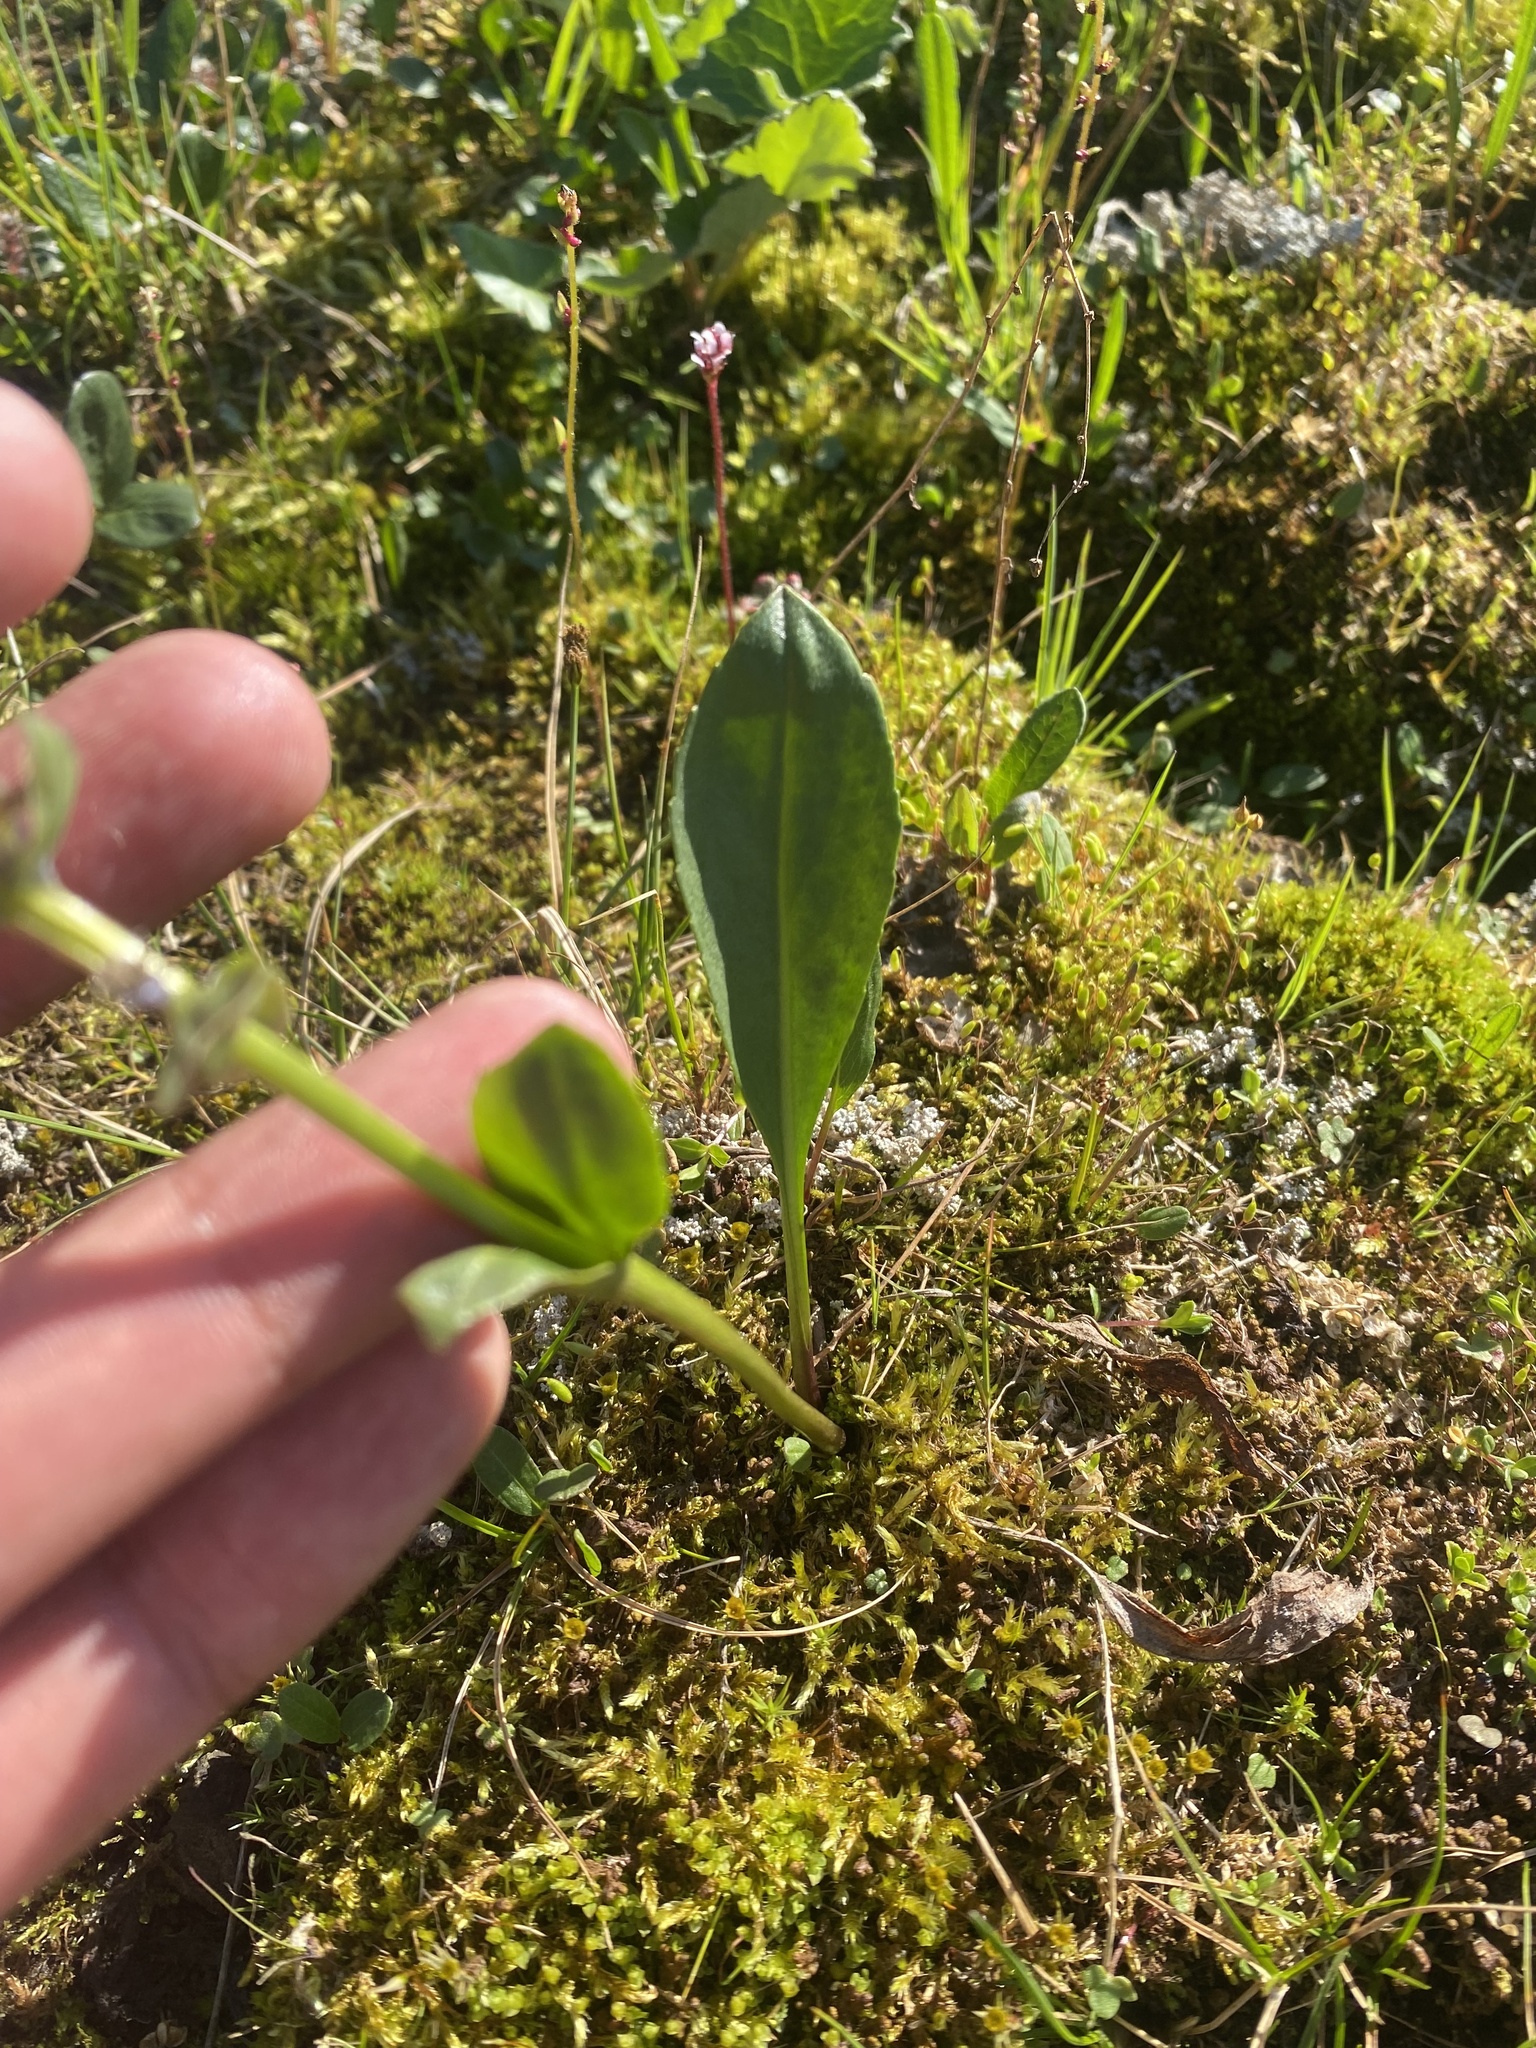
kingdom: Plantae
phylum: Tracheophyta
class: Magnoliopsida
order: Lamiales
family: Plantaginaceae
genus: Lagotis
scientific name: Lagotis glauca
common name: Glaucous weaselsnout
